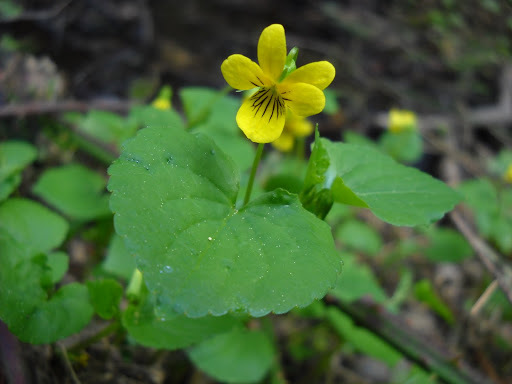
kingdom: Plantae
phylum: Tracheophyta
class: Magnoliopsida
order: Malpighiales
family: Violaceae
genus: Viola
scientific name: Viola glabella
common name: Stream violet
